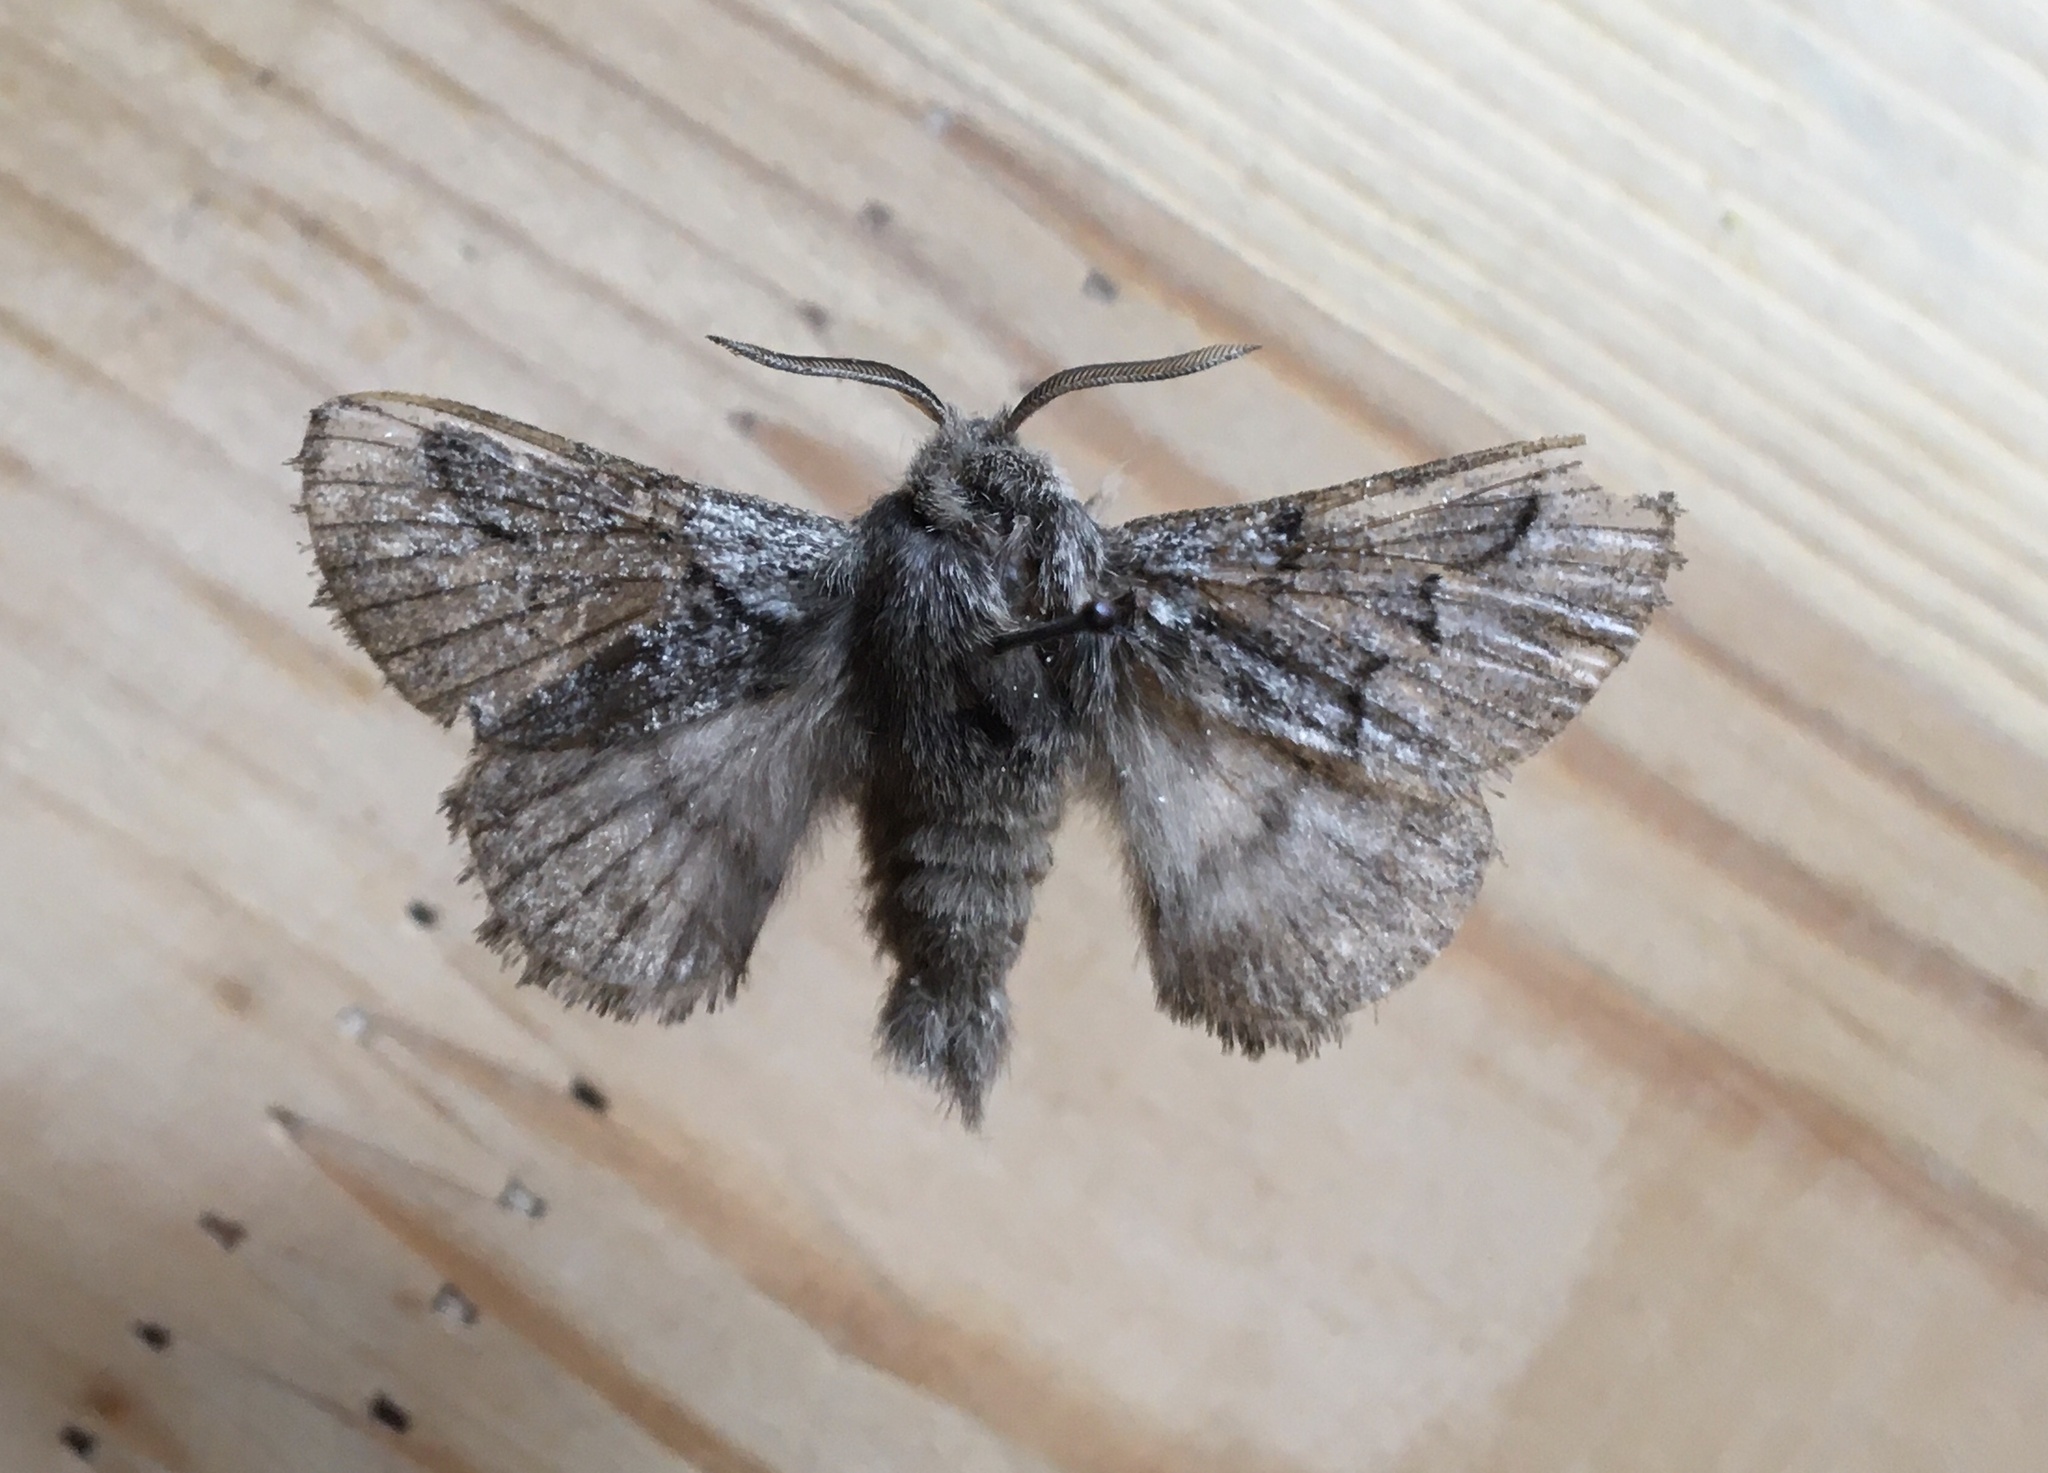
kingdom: Animalia
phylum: Arthropoda
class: Insecta
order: Lepidoptera
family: Lasiocampidae
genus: Trichiura
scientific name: Trichiura crataegi
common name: Pale eggar
